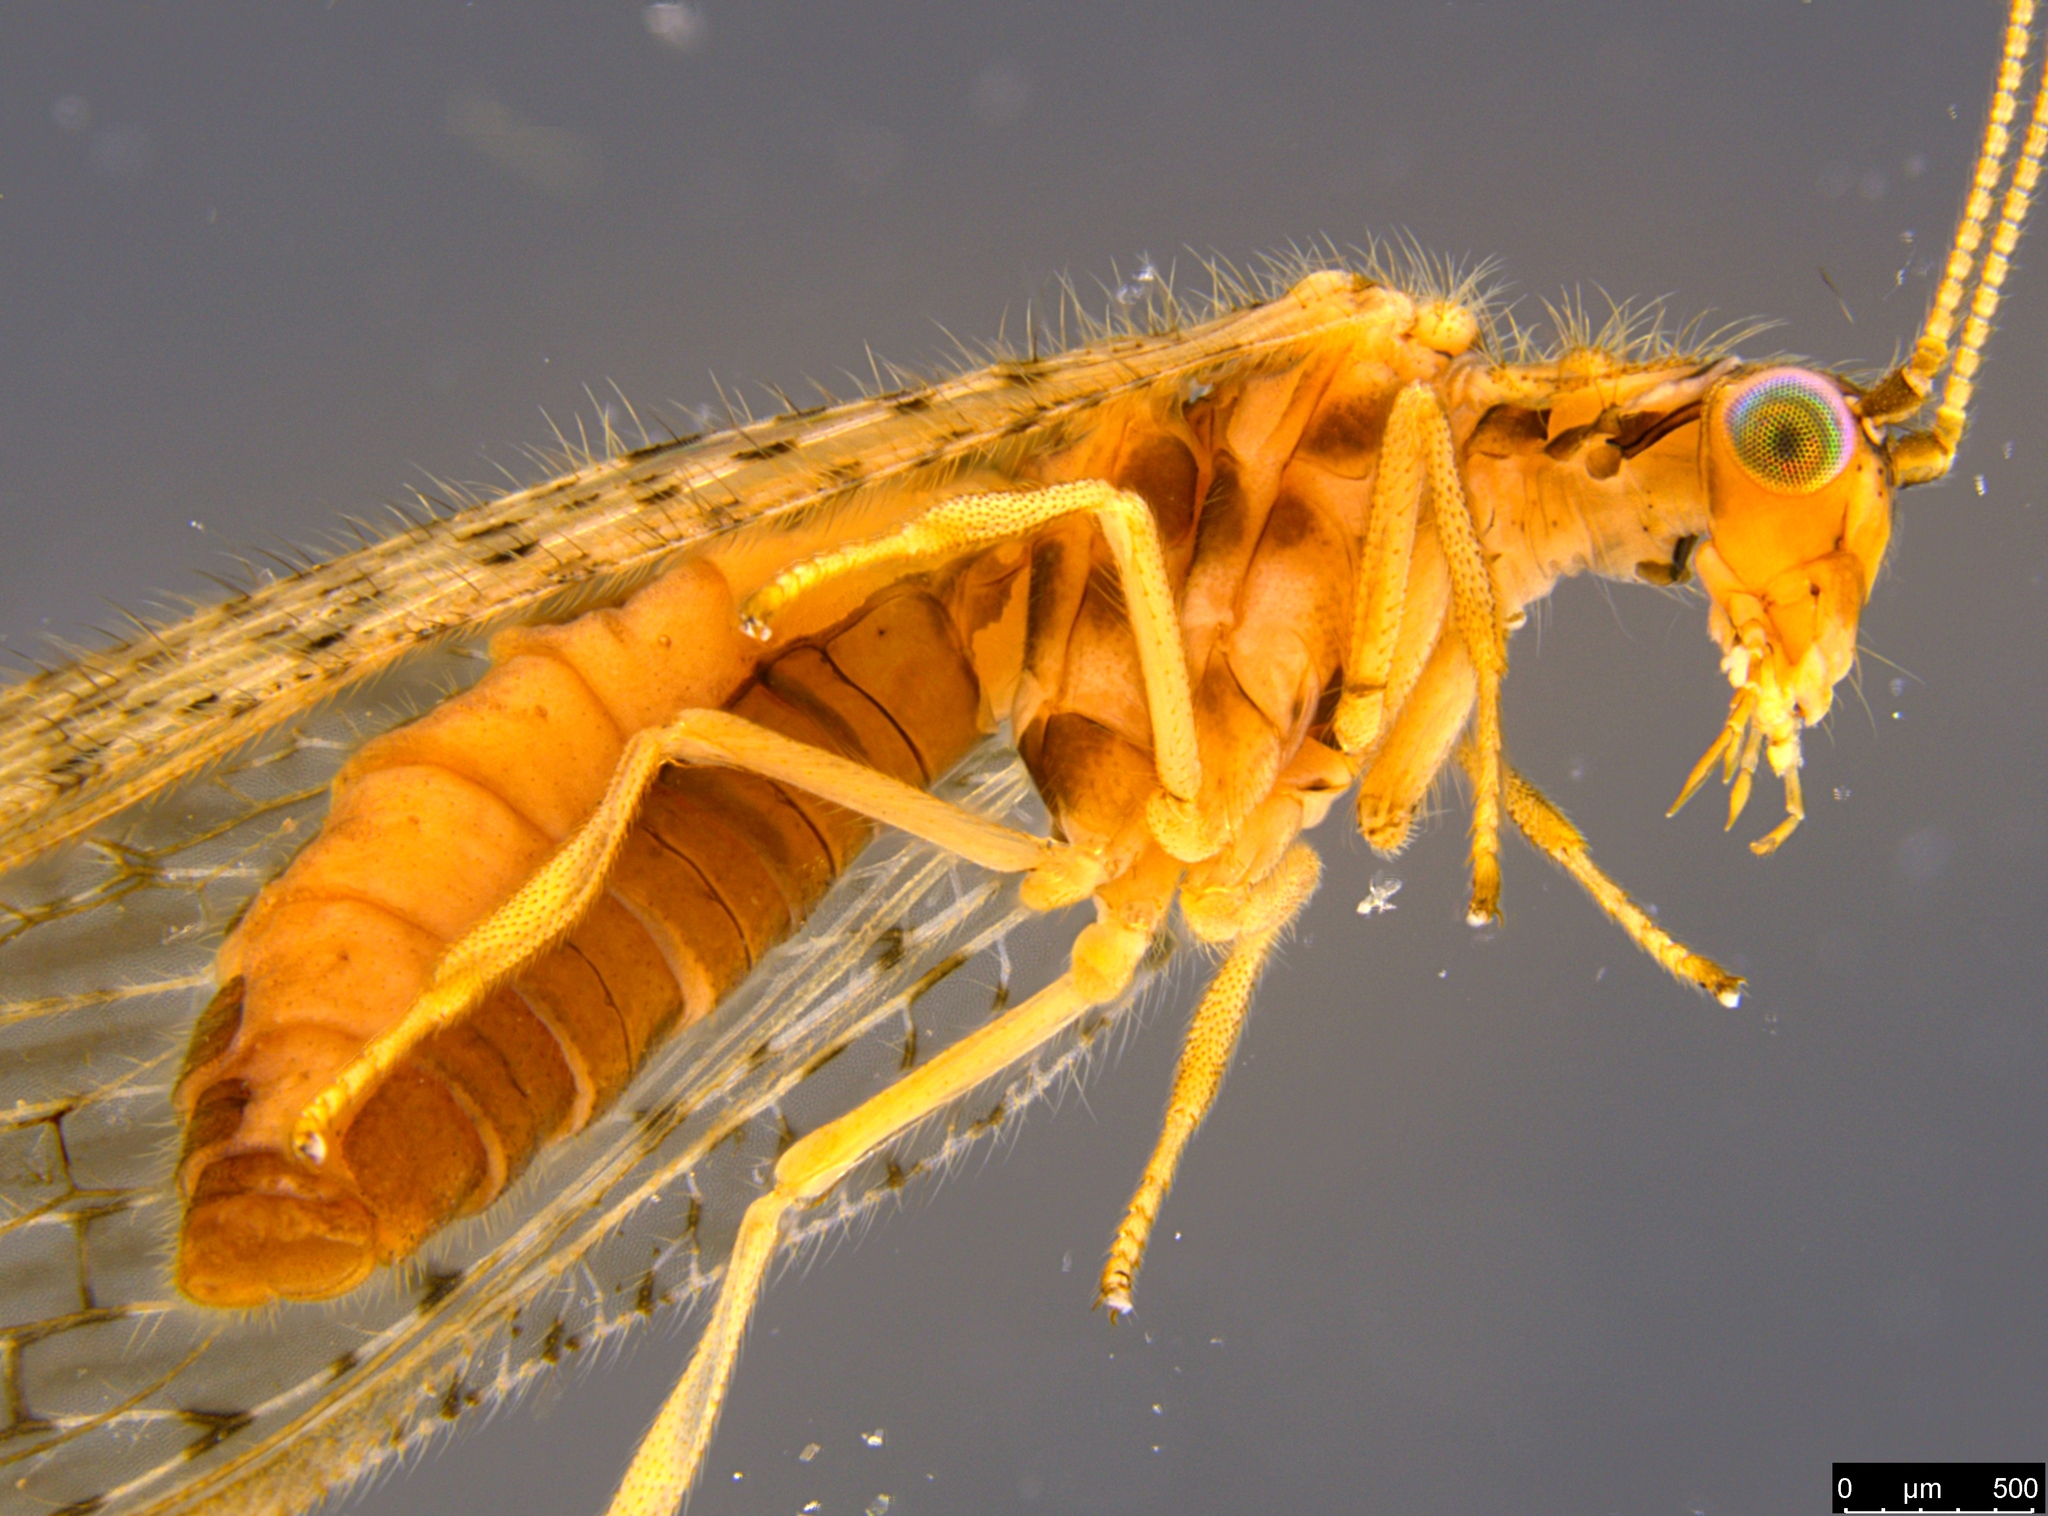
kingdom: Animalia
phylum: Arthropoda
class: Insecta
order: Neuroptera
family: Hemerobiidae
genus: Micromus
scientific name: Micromus tasmaniae
